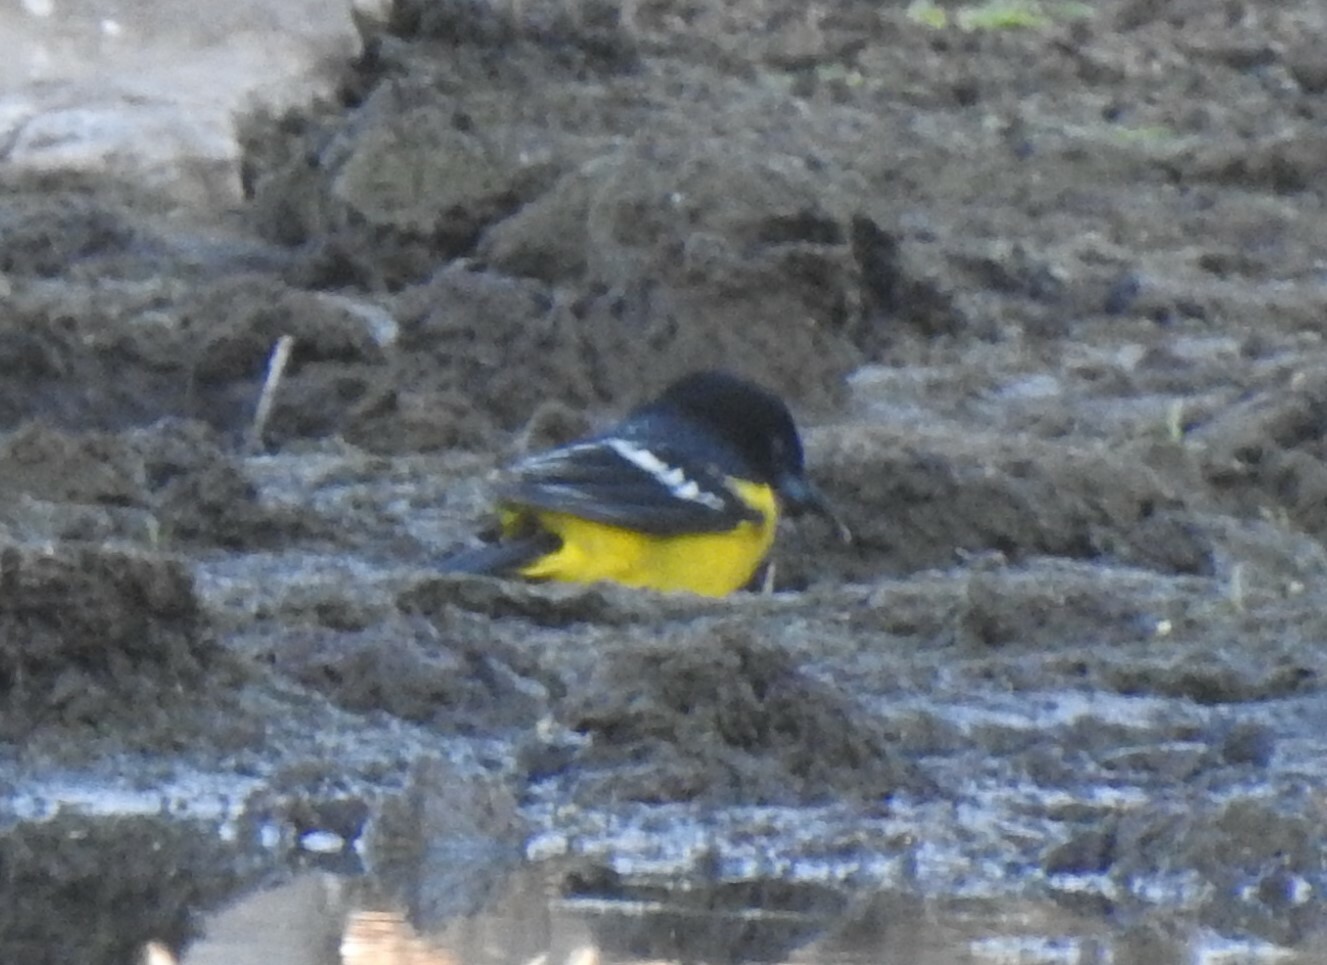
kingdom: Animalia
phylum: Chordata
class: Aves
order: Passeriformes
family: Icteridae
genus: Icterus
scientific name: Icterus parisorum
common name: Scott's oriole
